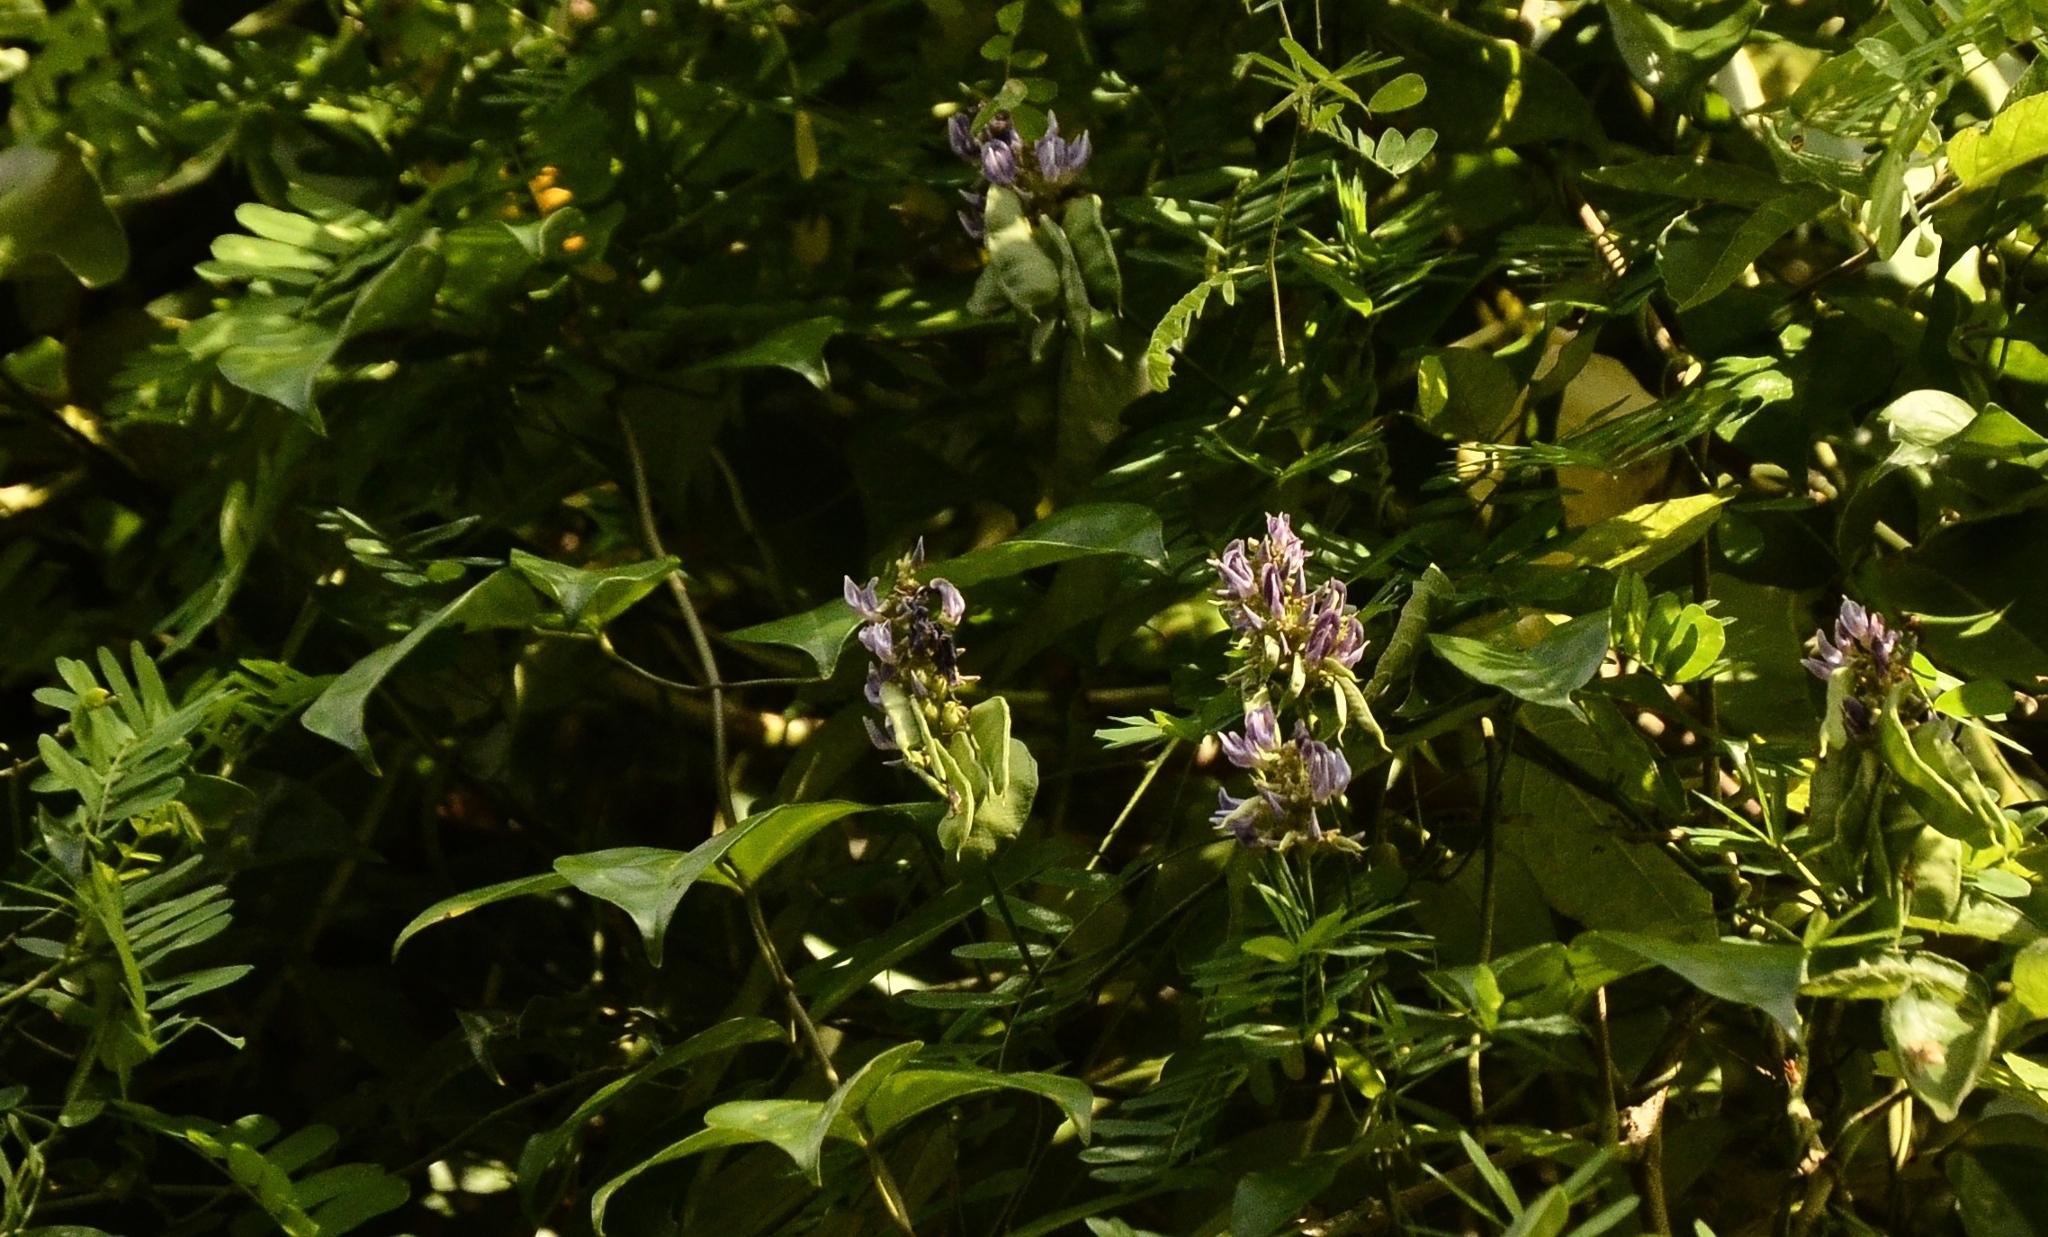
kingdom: Plantae
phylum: Tracheophyta
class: Magnoliopsida
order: Fabales
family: Fabaceae
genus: Abrus
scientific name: Abrus precatorius
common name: Rosarypea
